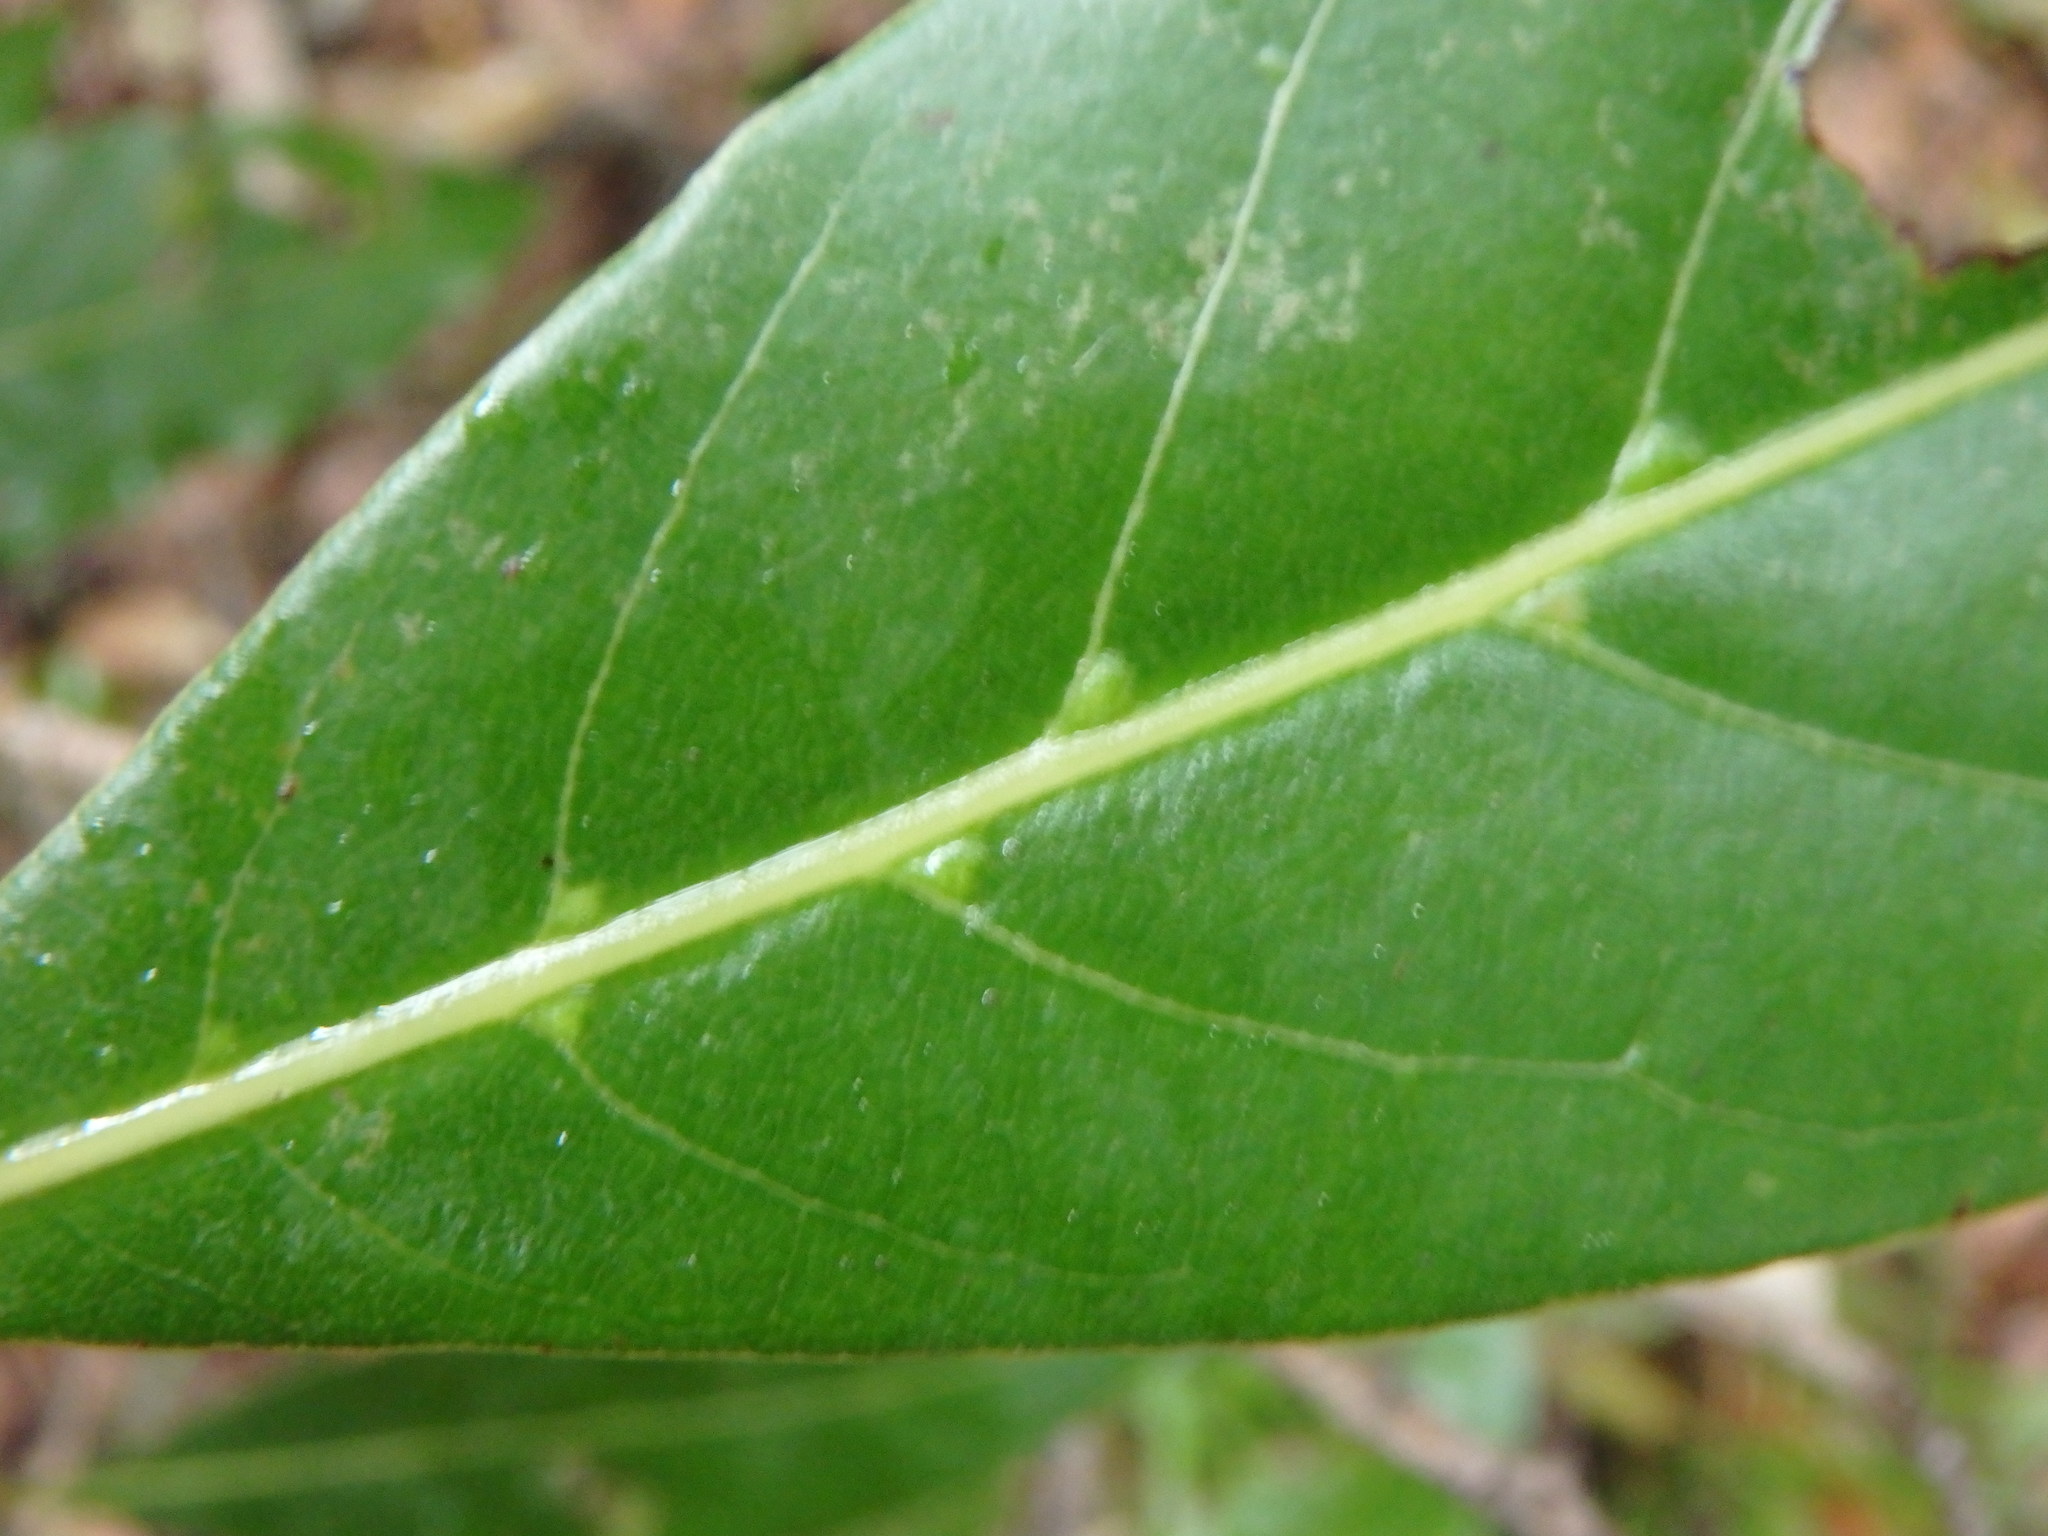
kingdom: Plantae
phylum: Tracheophyta
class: Magnoliopsida
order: Laurales
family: Lauraceae
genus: Laurus
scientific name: Laurus novocanariensis
